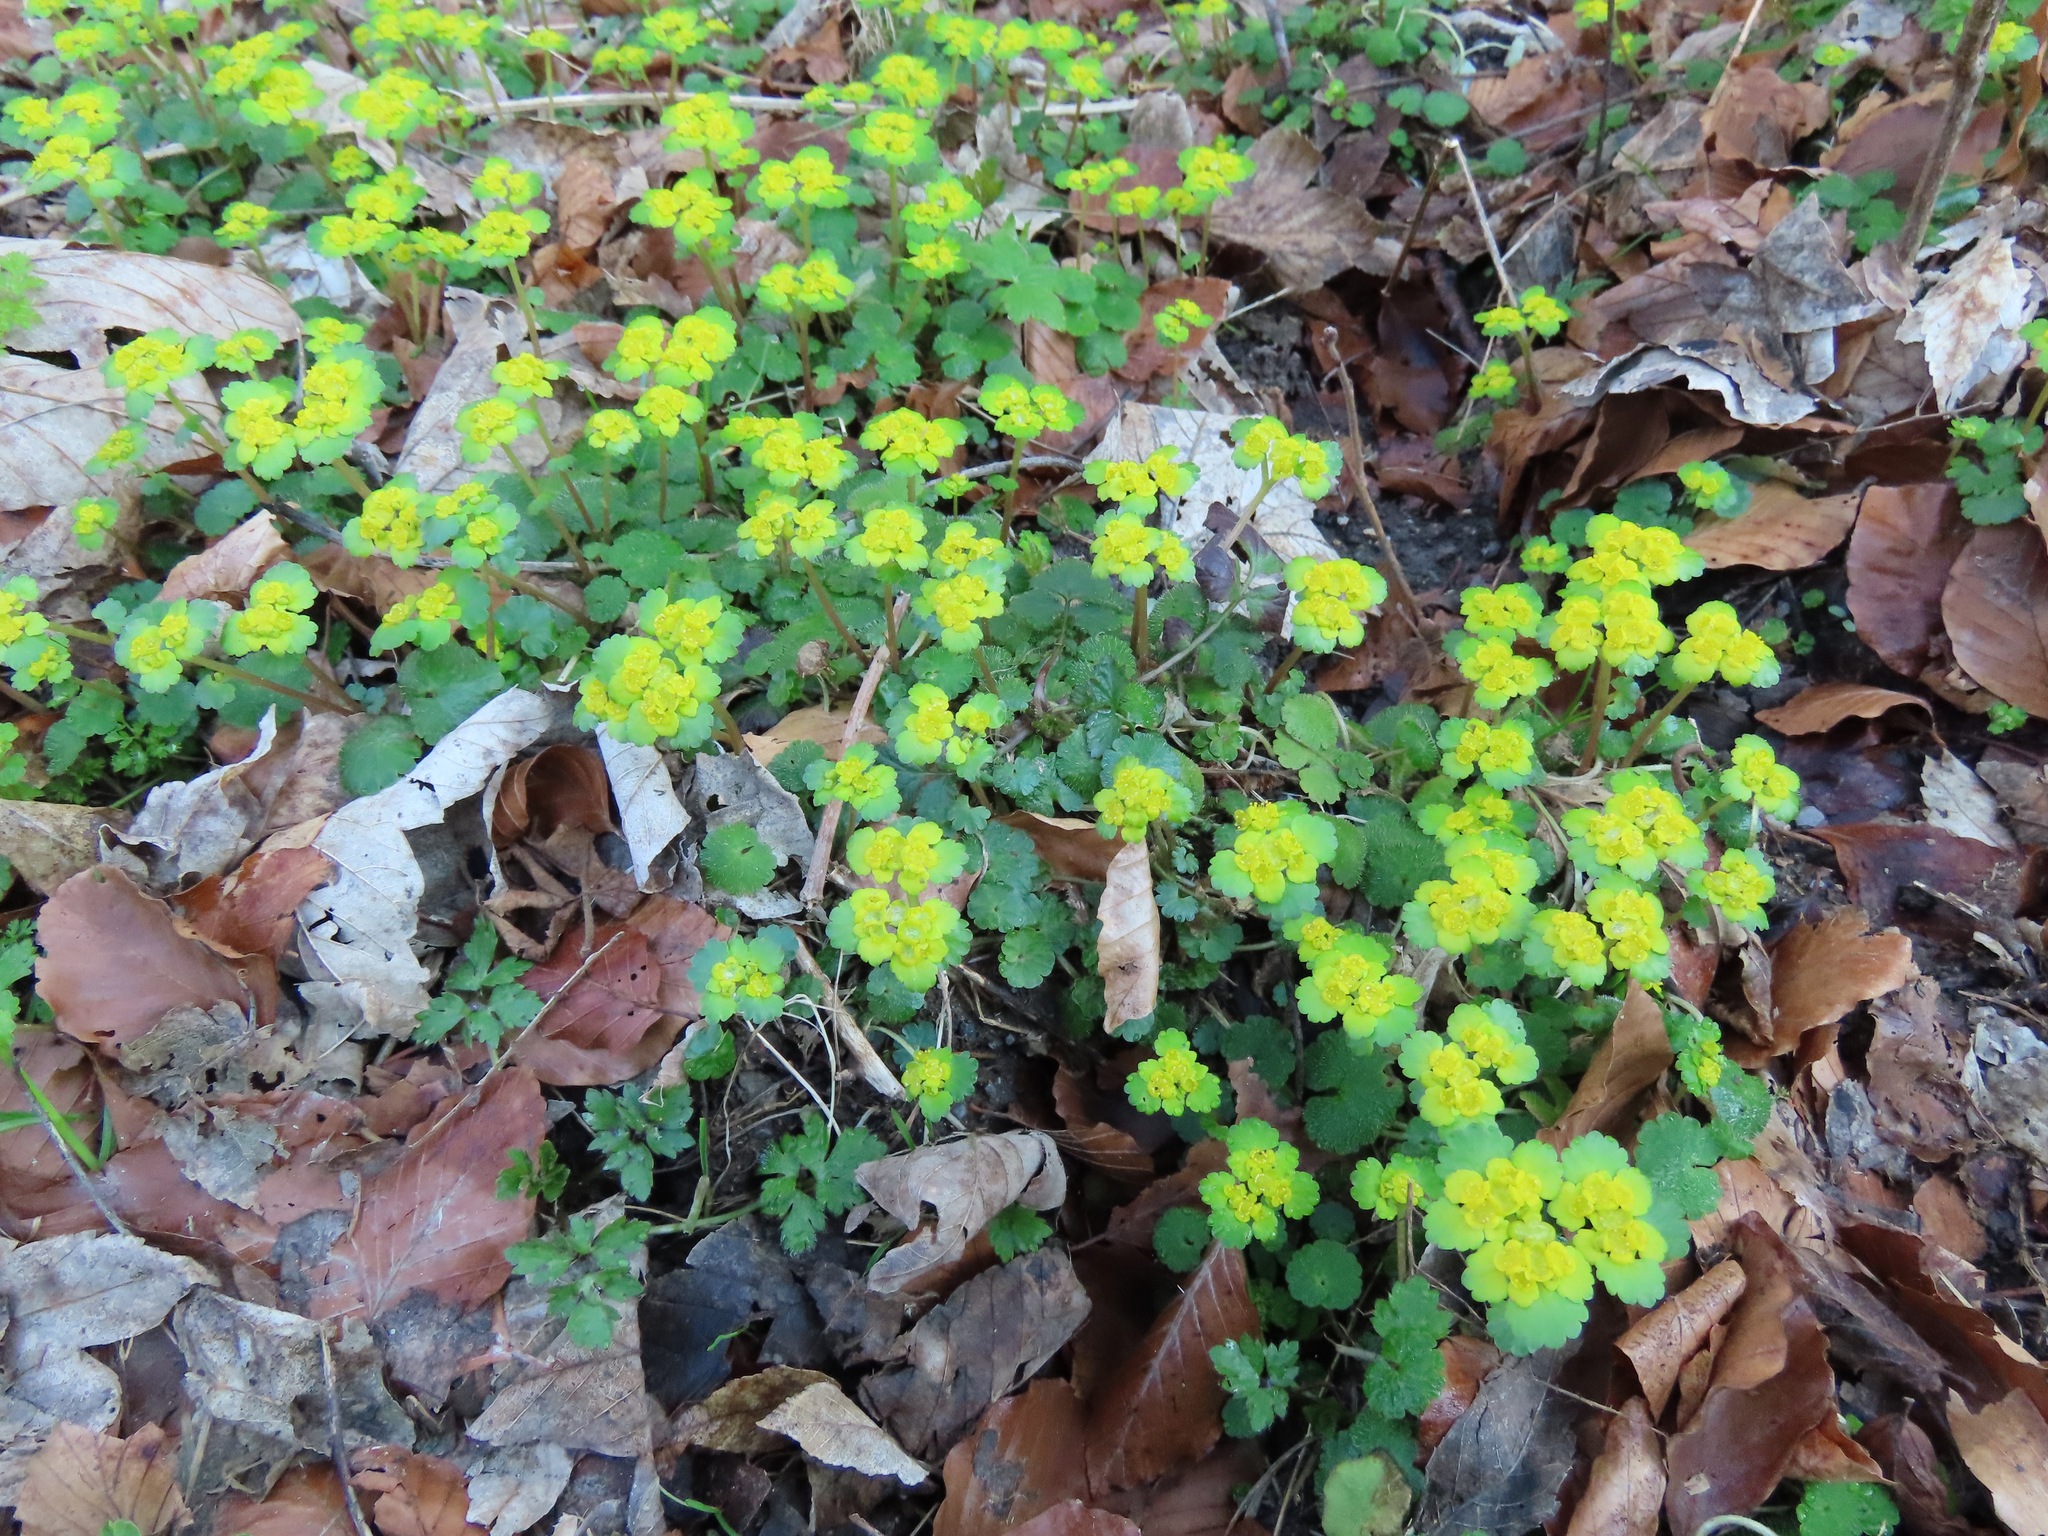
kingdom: Plantae
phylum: Tracheophyta
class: Magnoliopsida
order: Saxifragales
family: Saxifragaceae
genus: Chrysosplenium
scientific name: Chrysosplenium alternifolium
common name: Alternate-leaved golden-saxifrage
